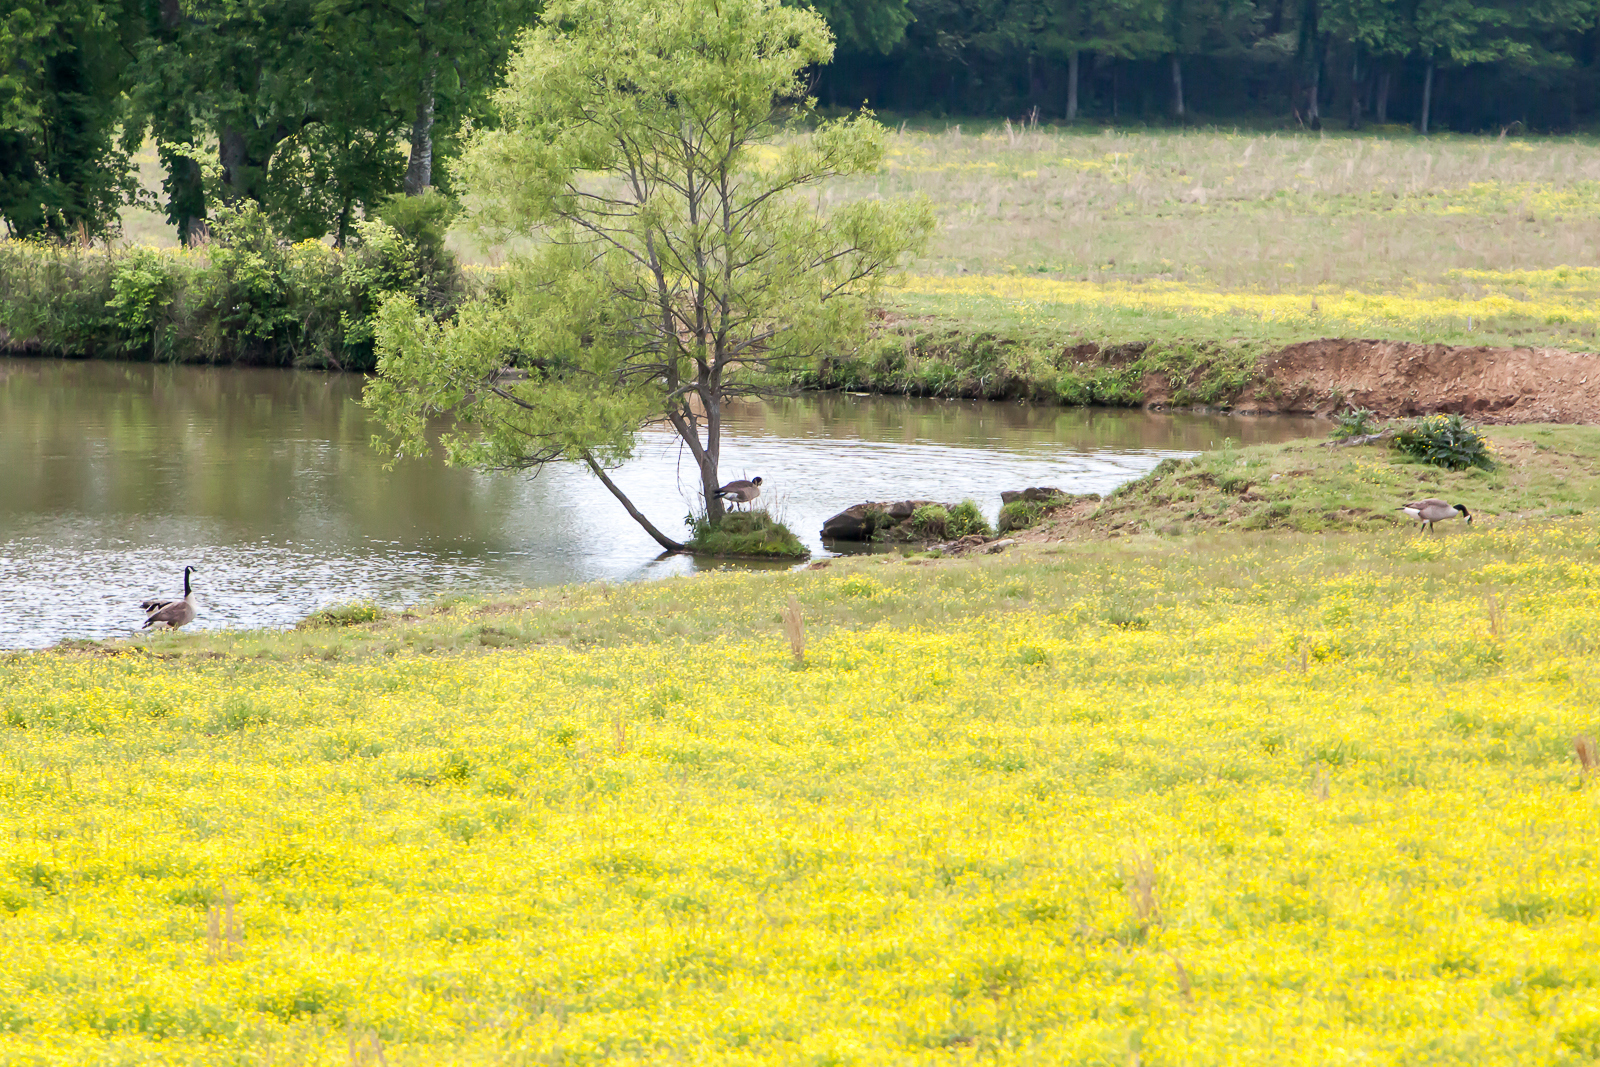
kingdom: Animalia
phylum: Chordata
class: Aves
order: Anseriformes
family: Anatidae
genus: Branta
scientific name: Branta canadensis
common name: Canada goose
